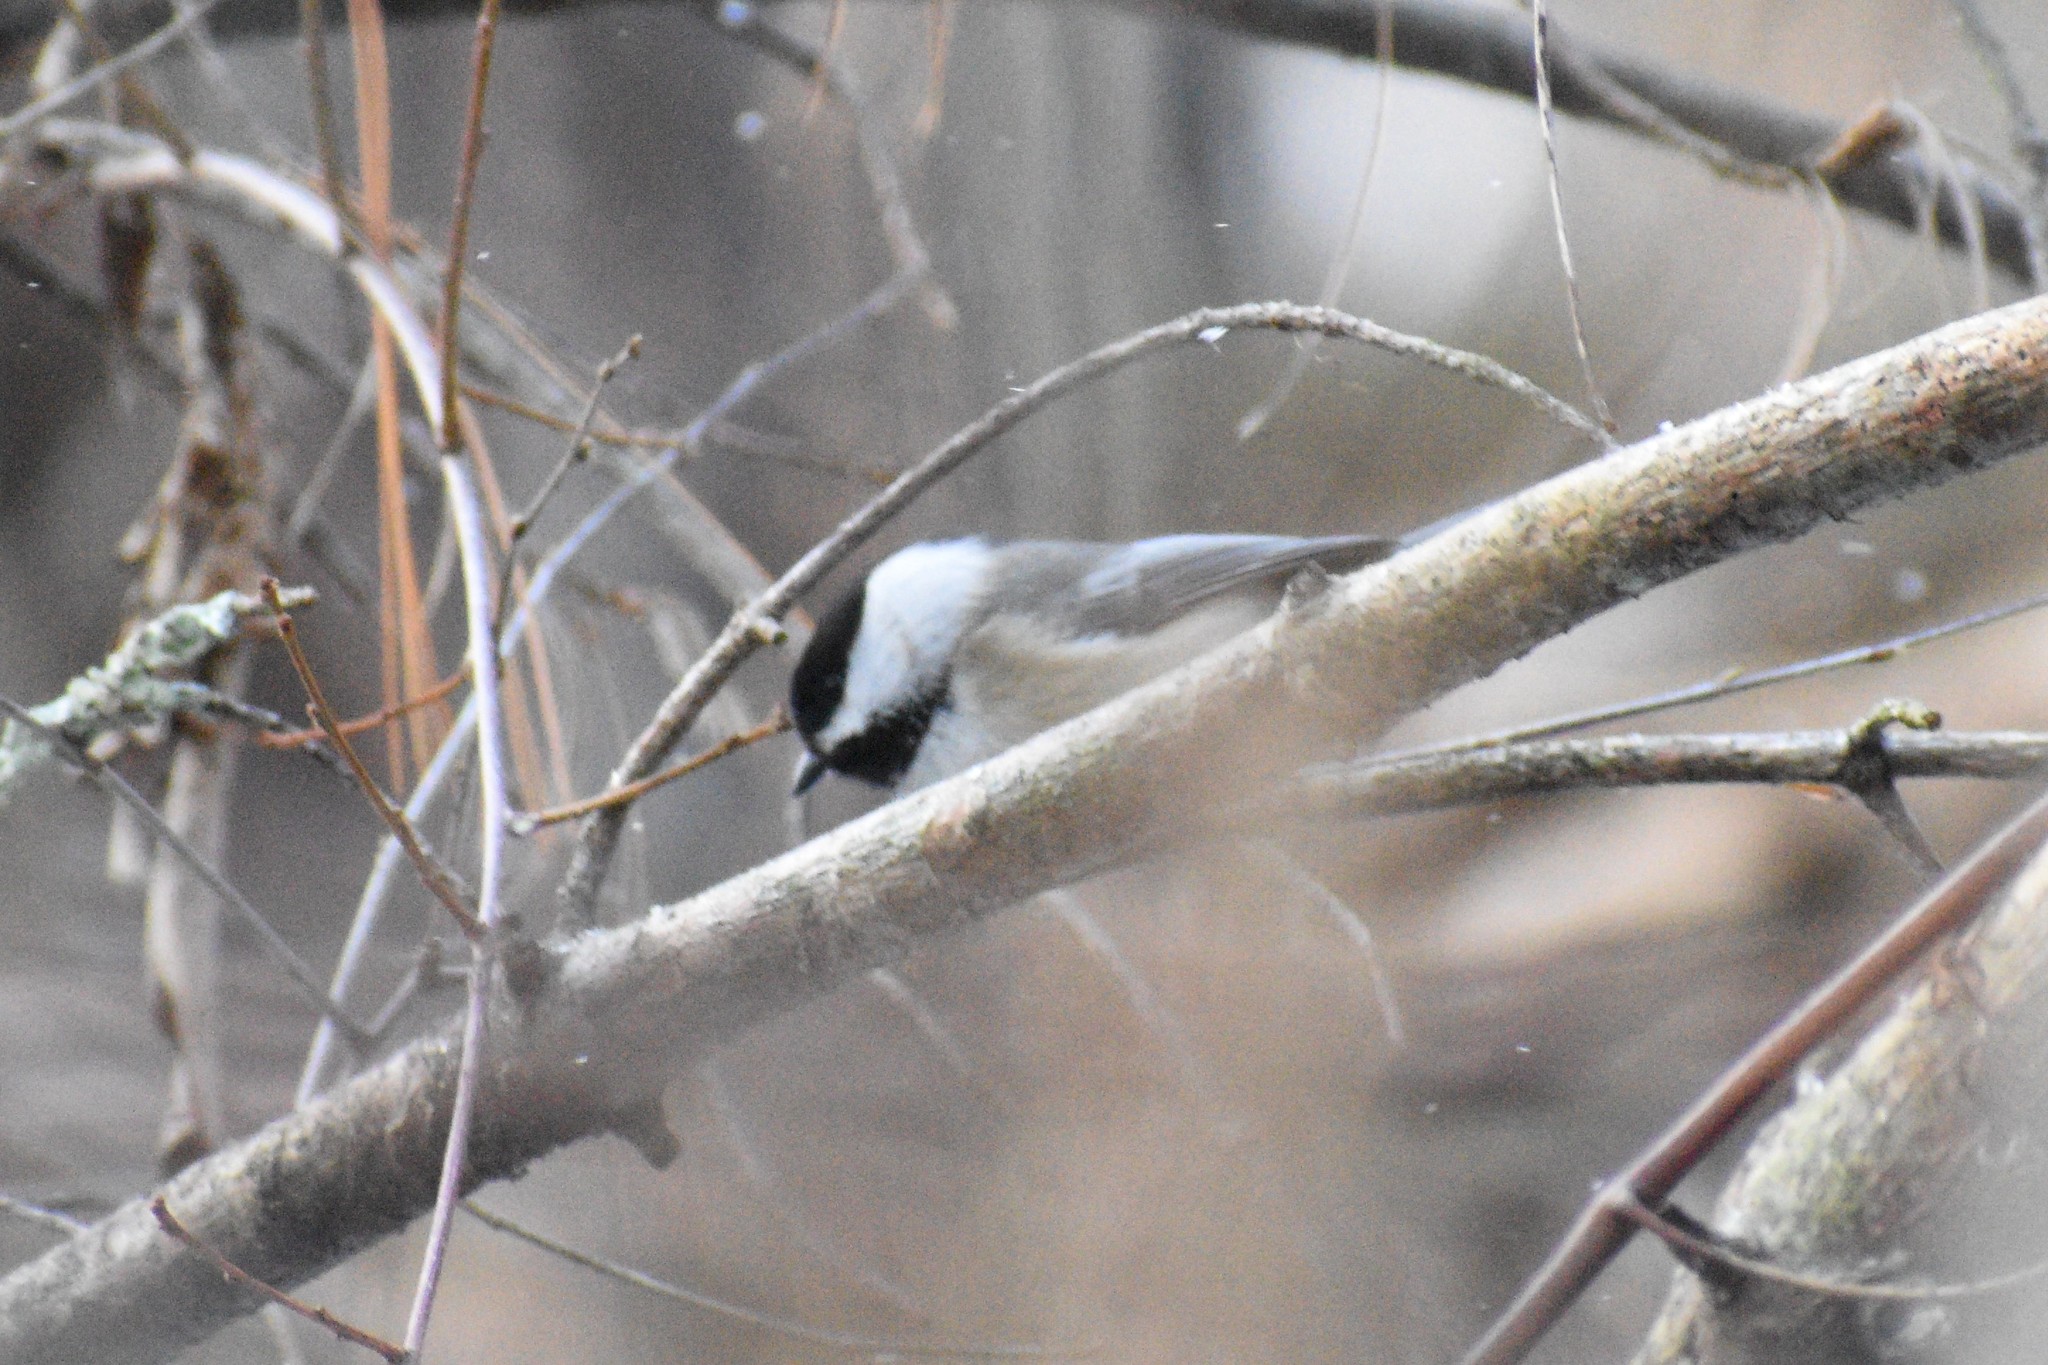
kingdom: Animalia
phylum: Chordata
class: Aves
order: Passeriformes
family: Paridae
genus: Poecile
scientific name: Poecile atricapillus
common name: Black-capped chickadee
